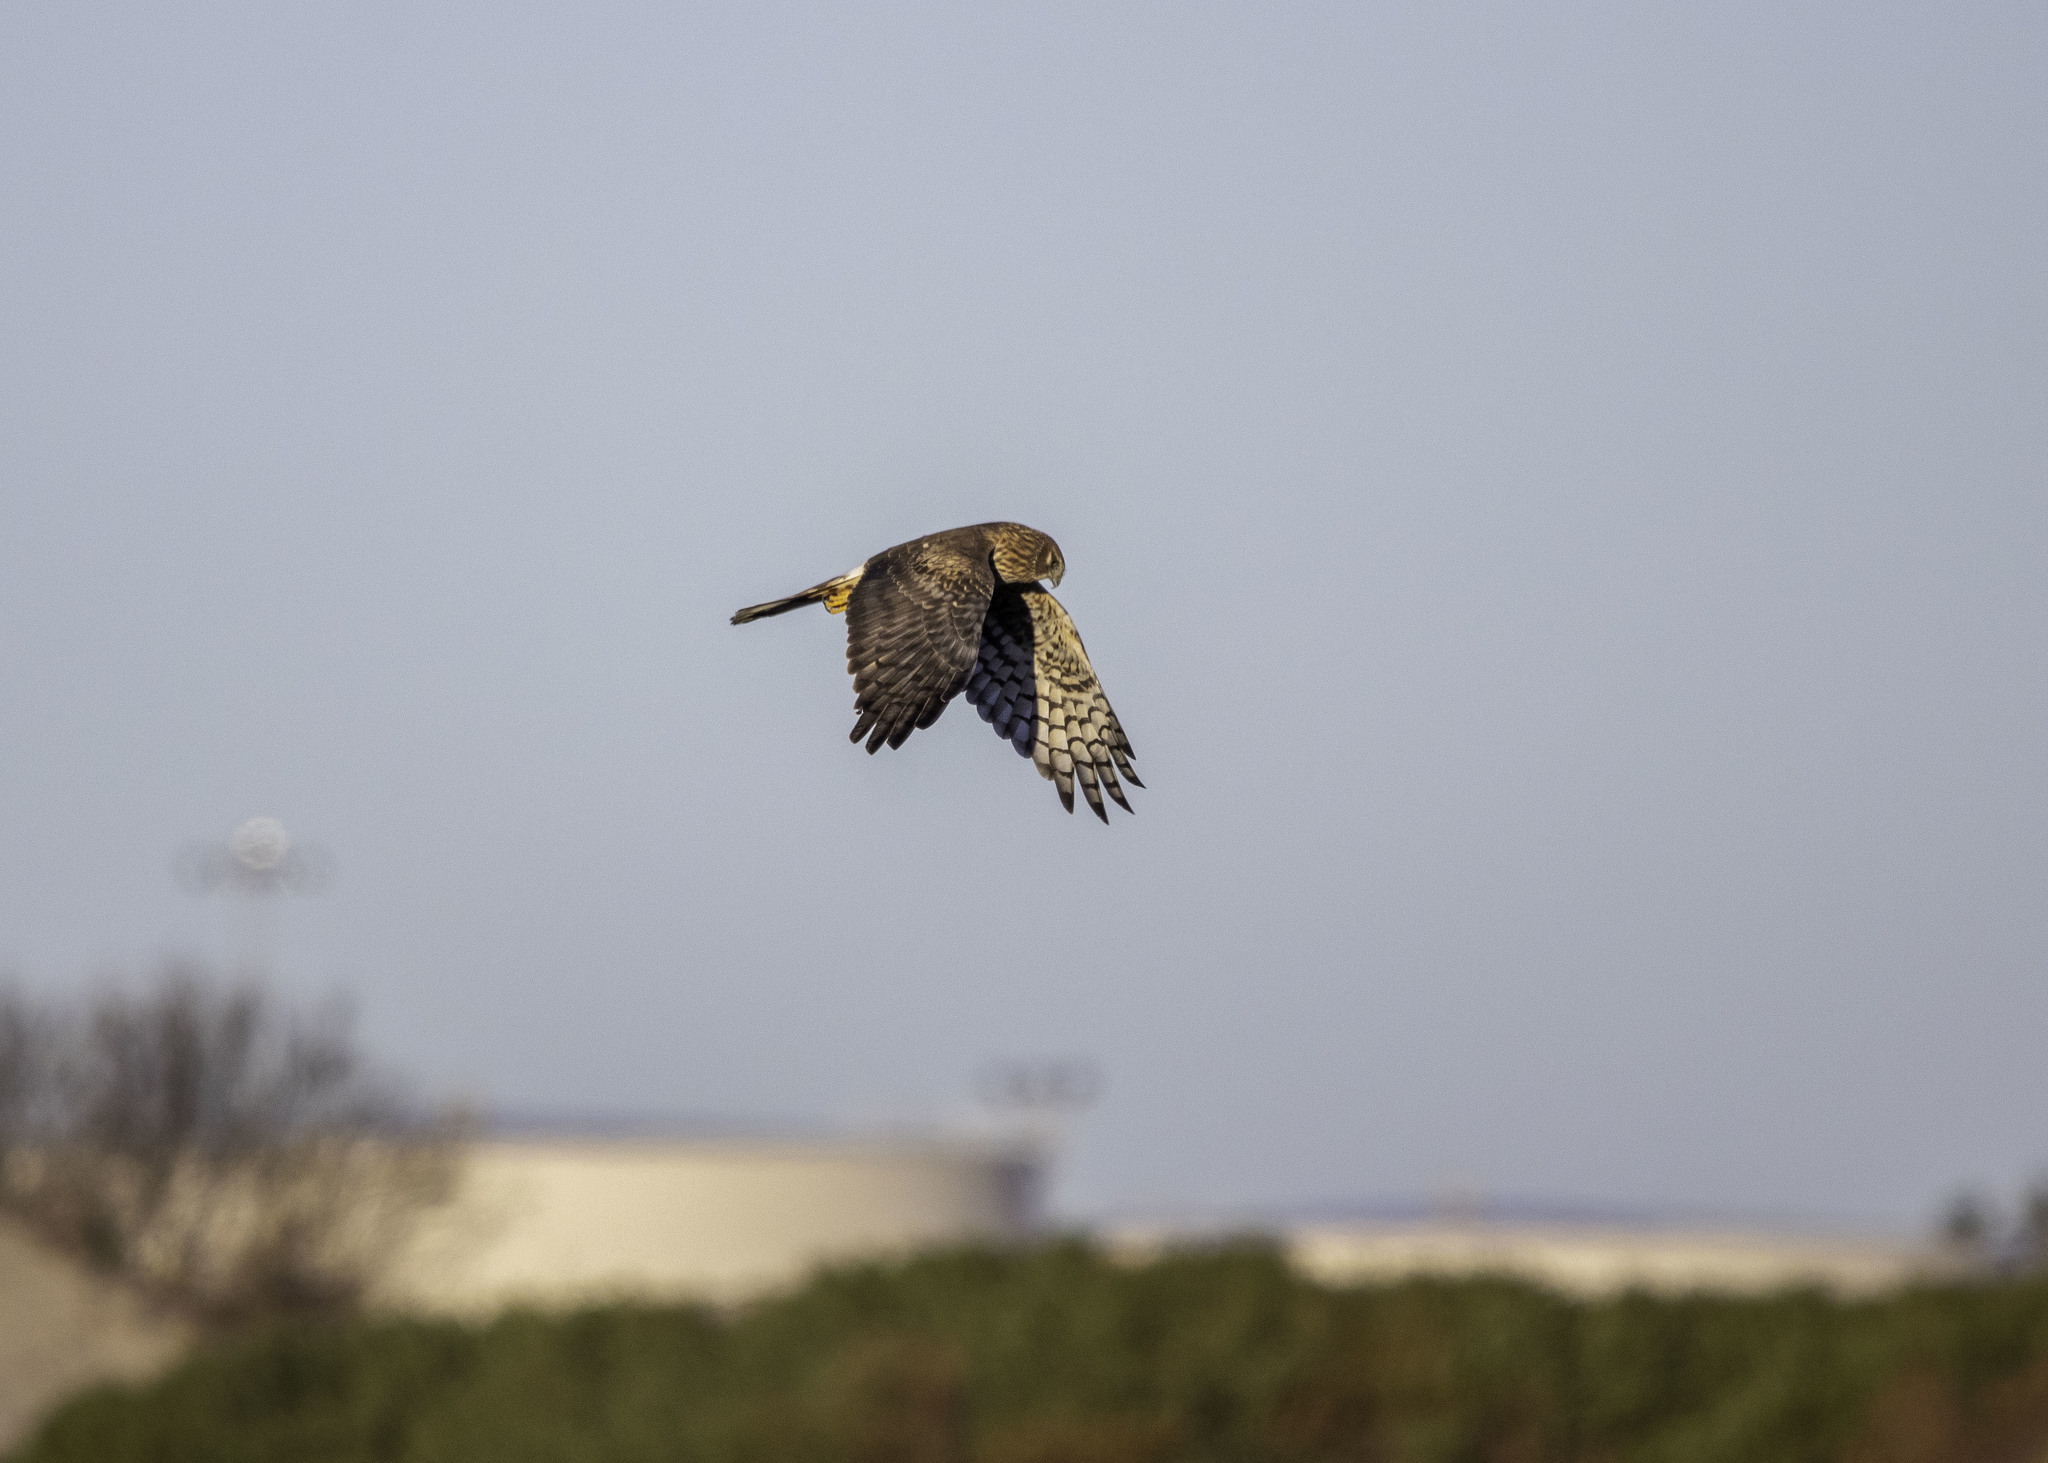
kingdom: Animalia
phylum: Chordata
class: Aves
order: Accipitriformes
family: Accipitridae
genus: Circus
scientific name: Circus cyaneus
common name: Hen harrier
